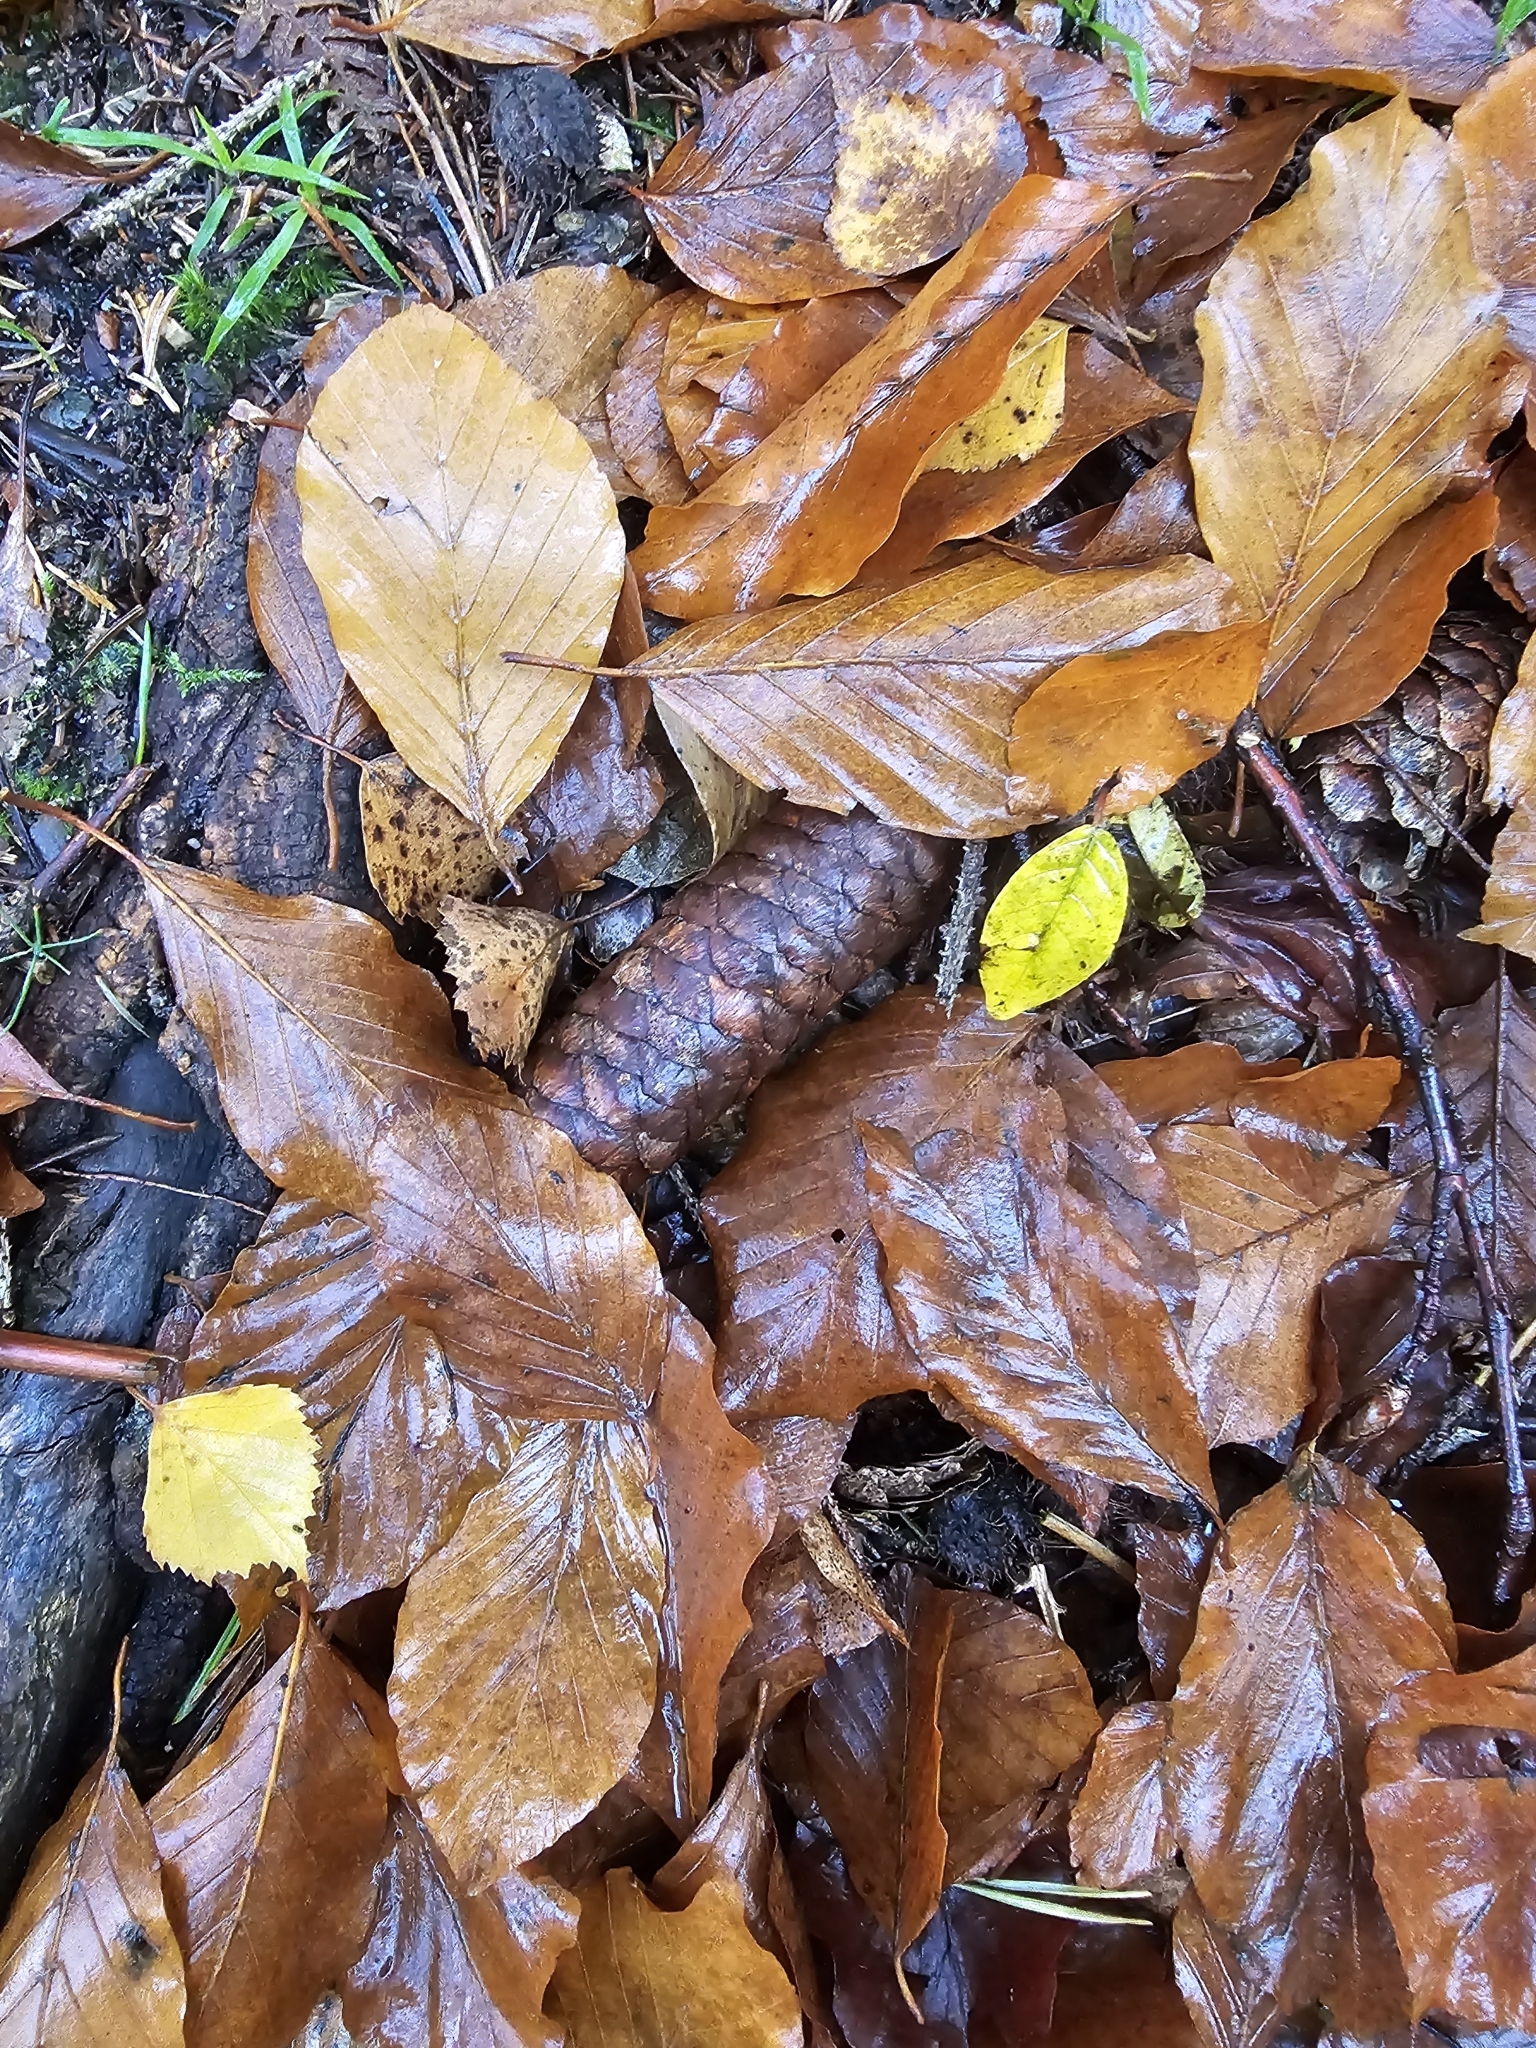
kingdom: Plantae
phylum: Tracheophyta
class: Pinopsida
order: Pinales
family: Pinaceae
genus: Picea
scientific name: Picea abies
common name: Norway spruce
